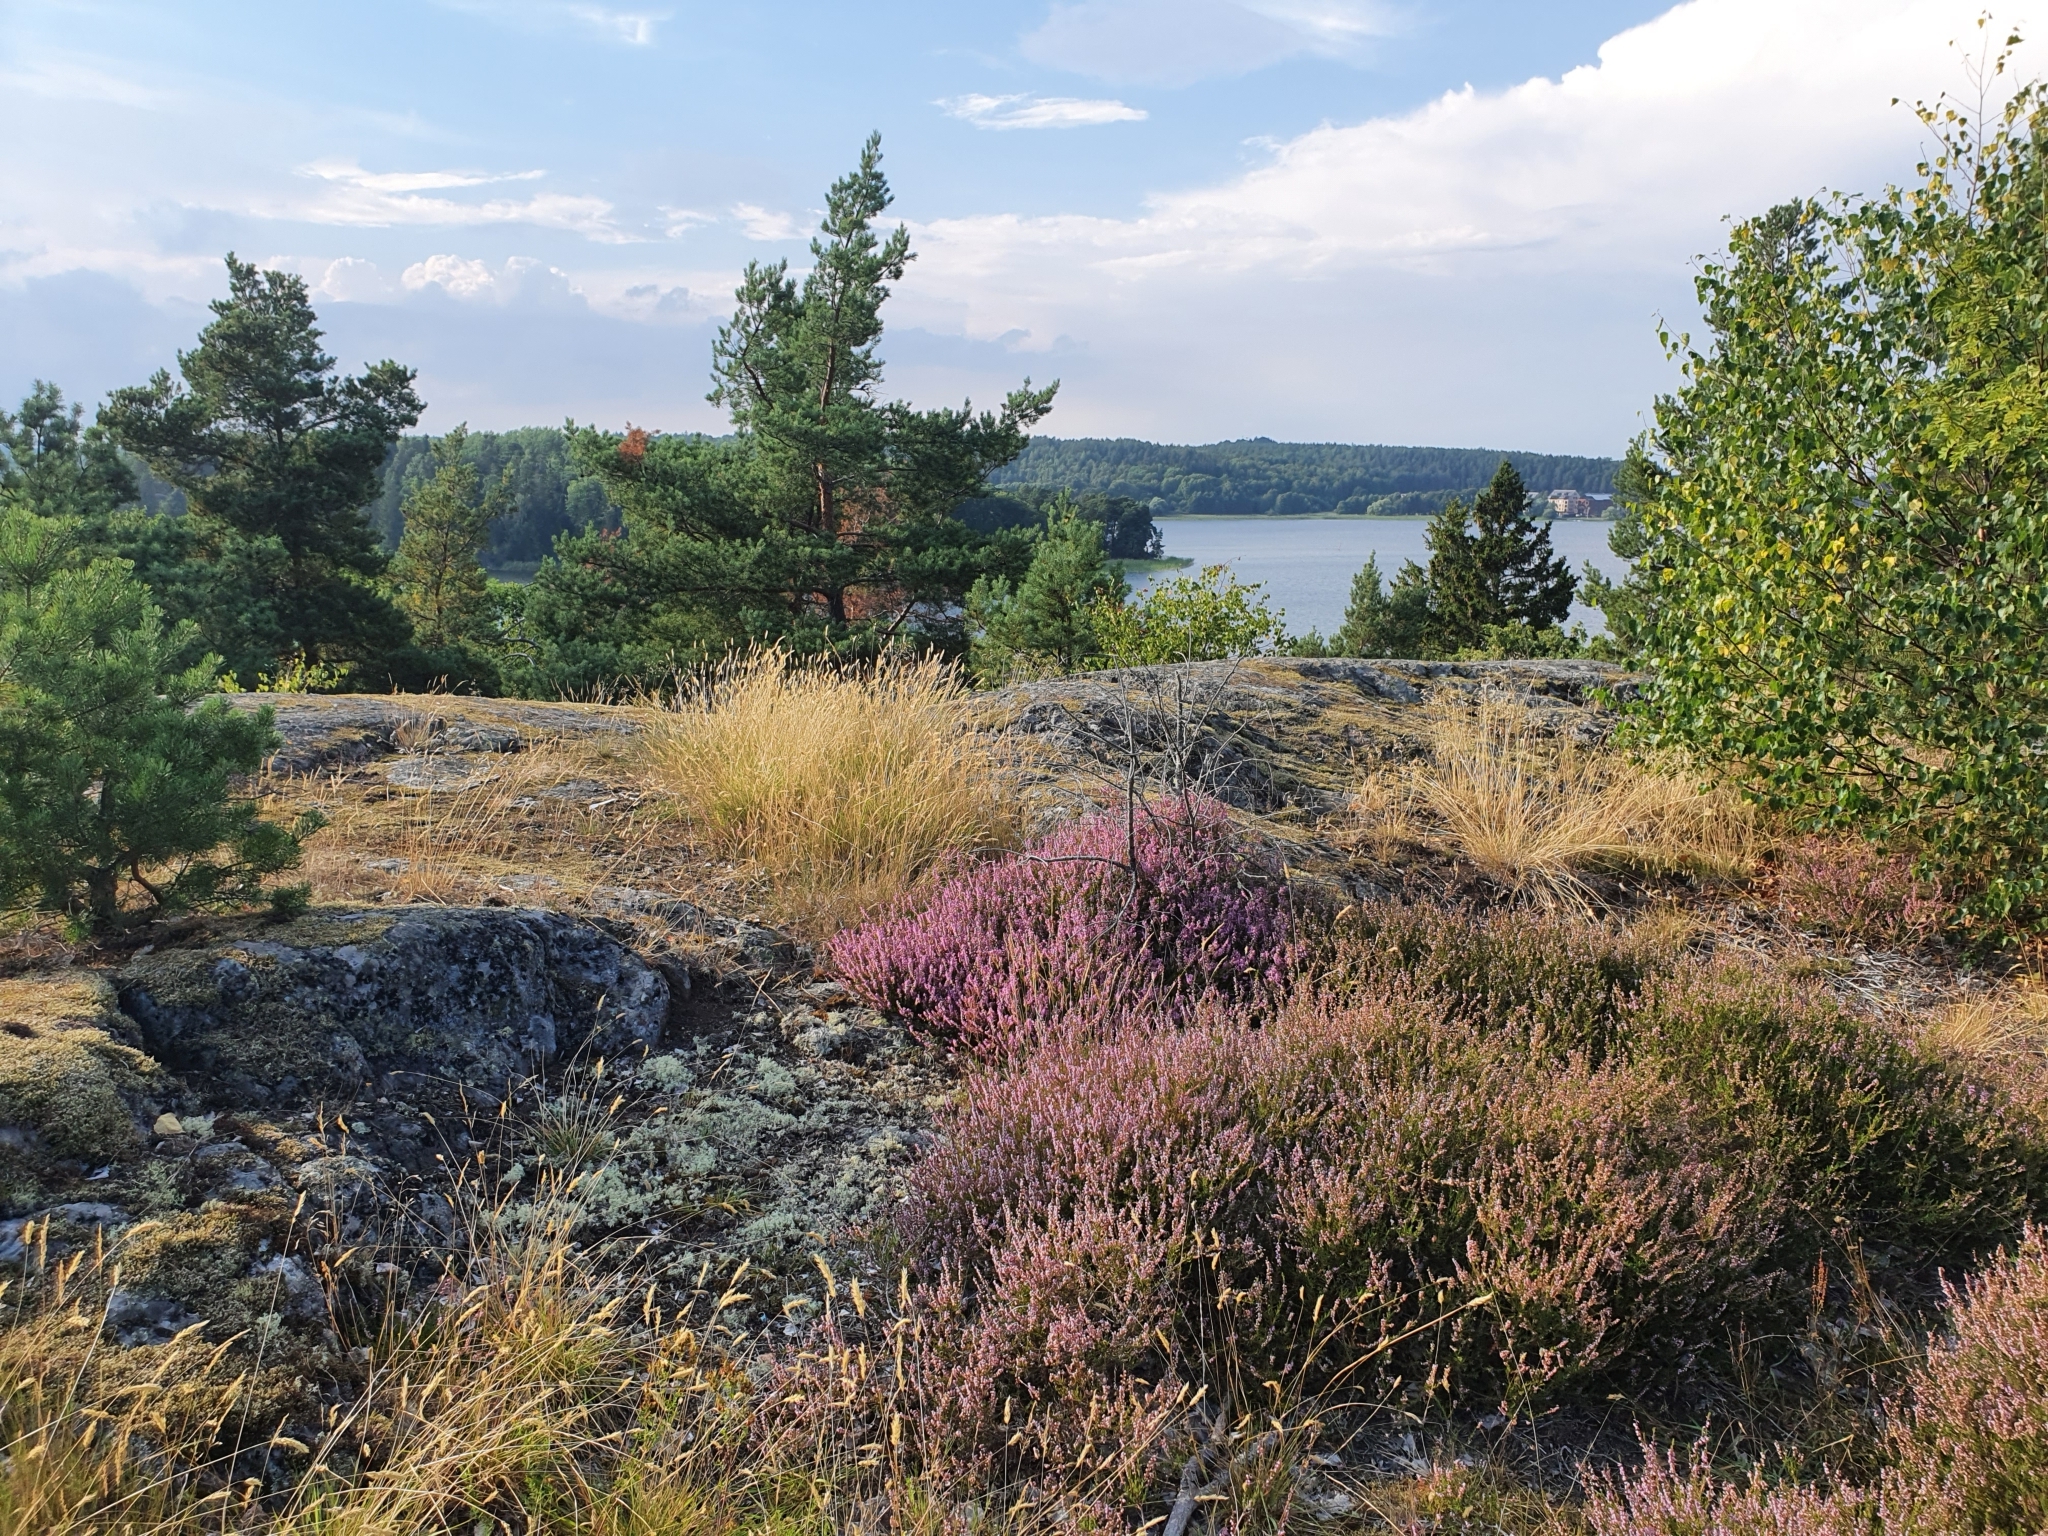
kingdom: Plantae
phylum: Tracheophyta
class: Magnoliopsida
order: Ericales
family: Ericaceae
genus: Calluna
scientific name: Calluna vulgaris
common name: Heather
